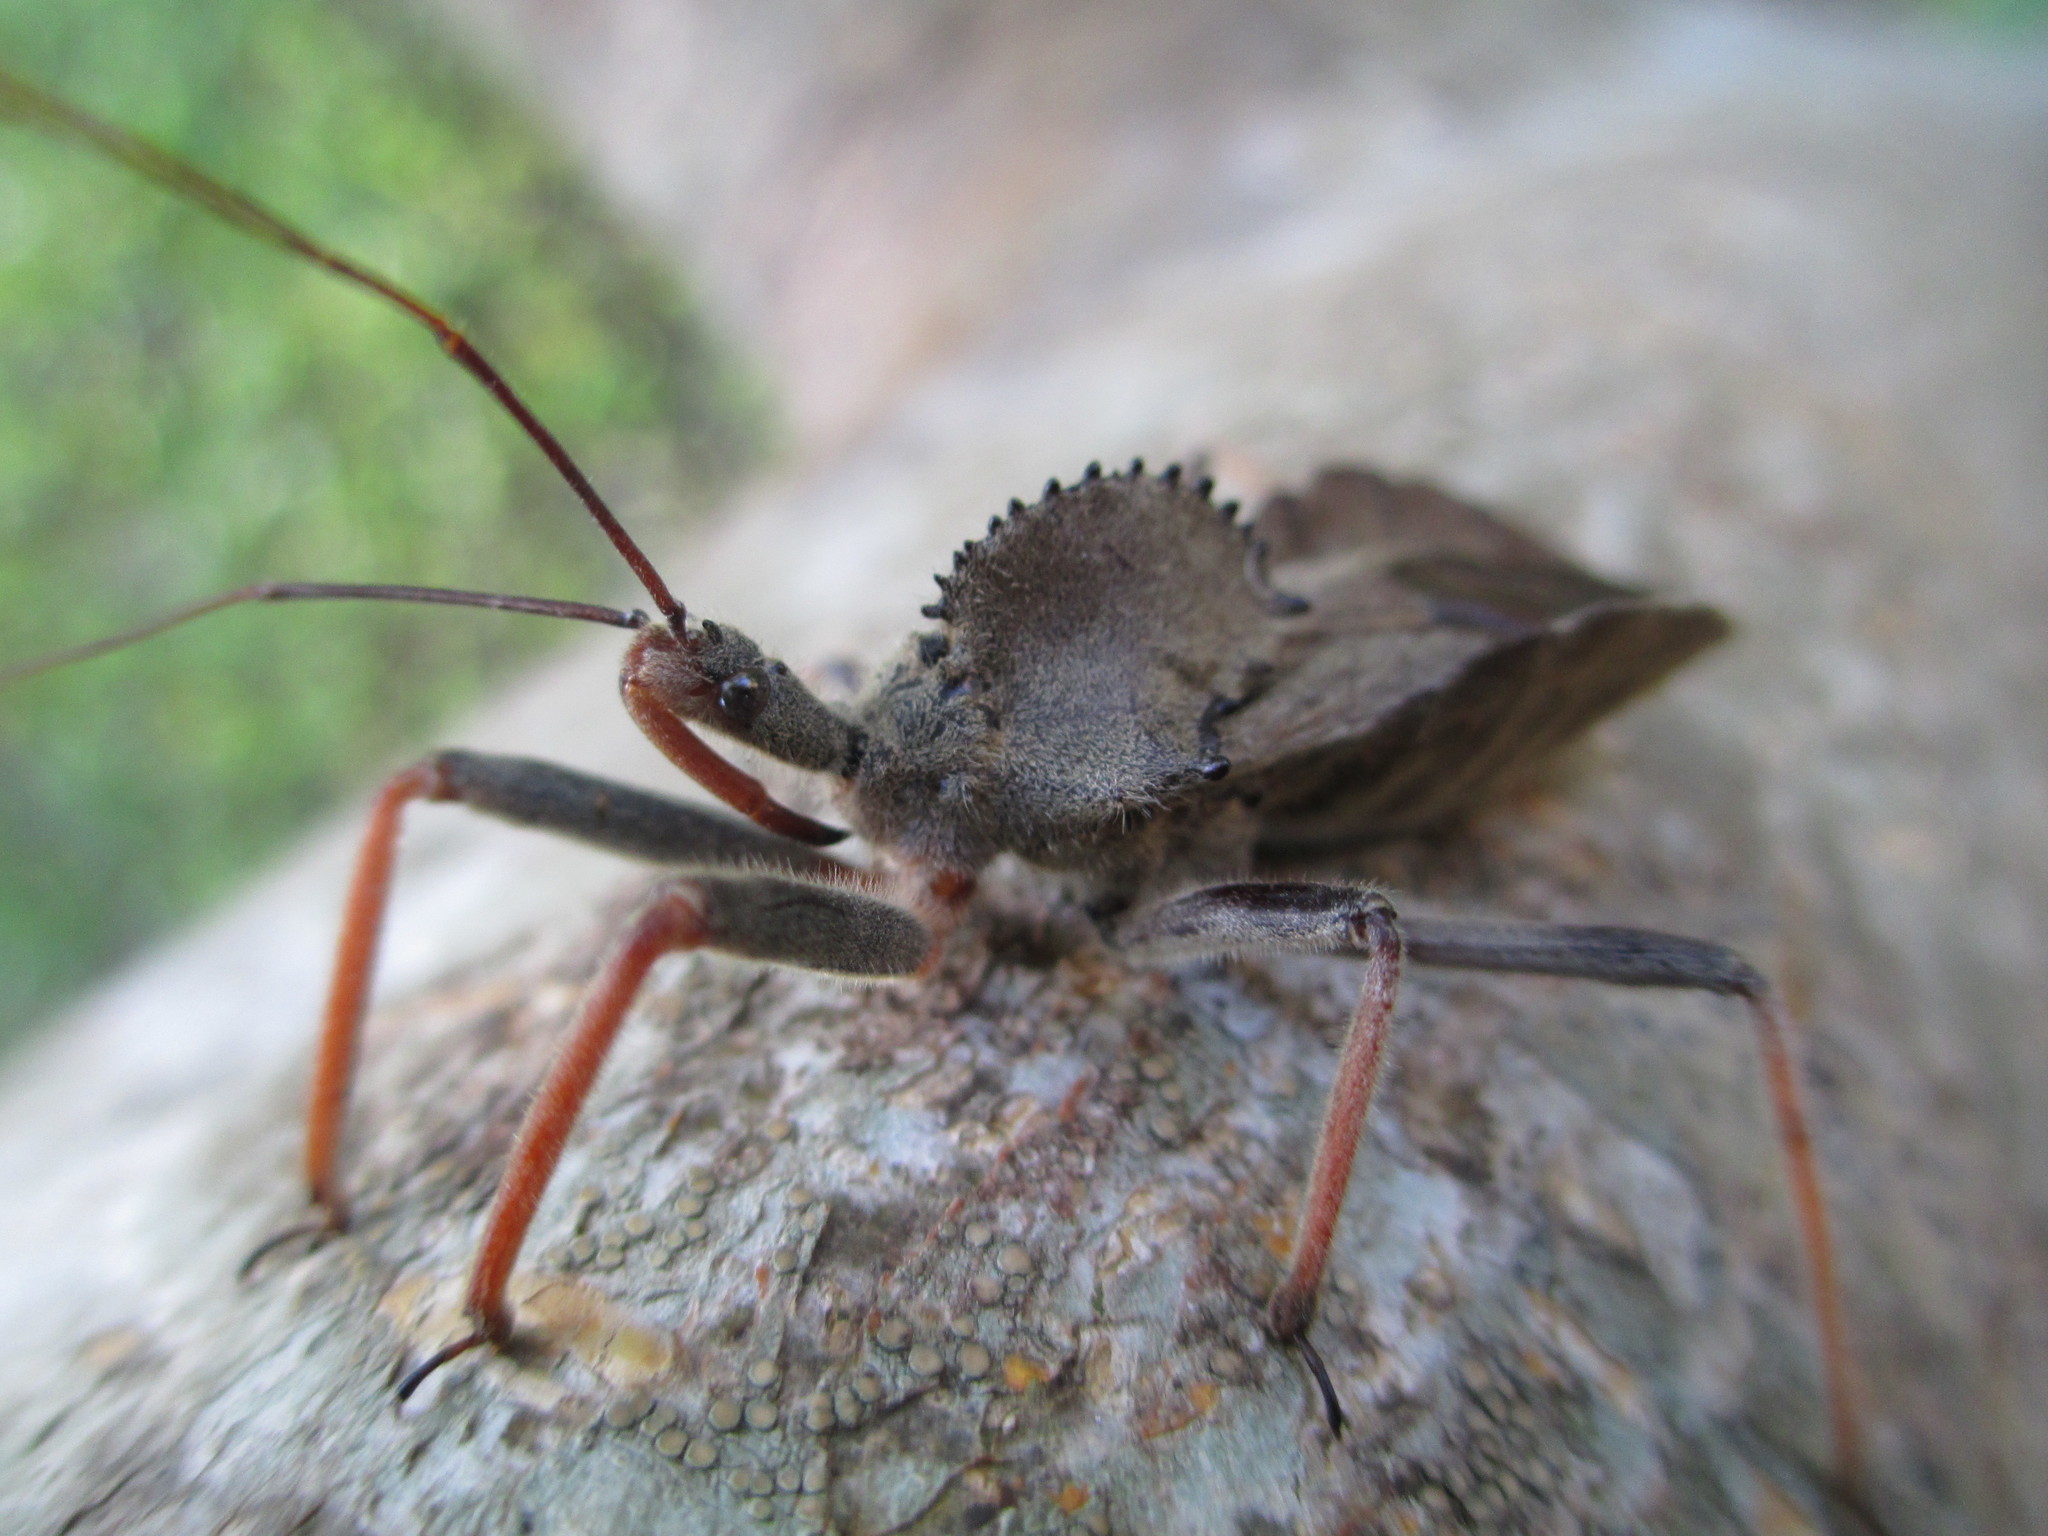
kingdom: Animalia
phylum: Arthropoda
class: Insecta
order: Hemiptera
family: Reduviidae
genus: Arilus
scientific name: Arilus carinatus
